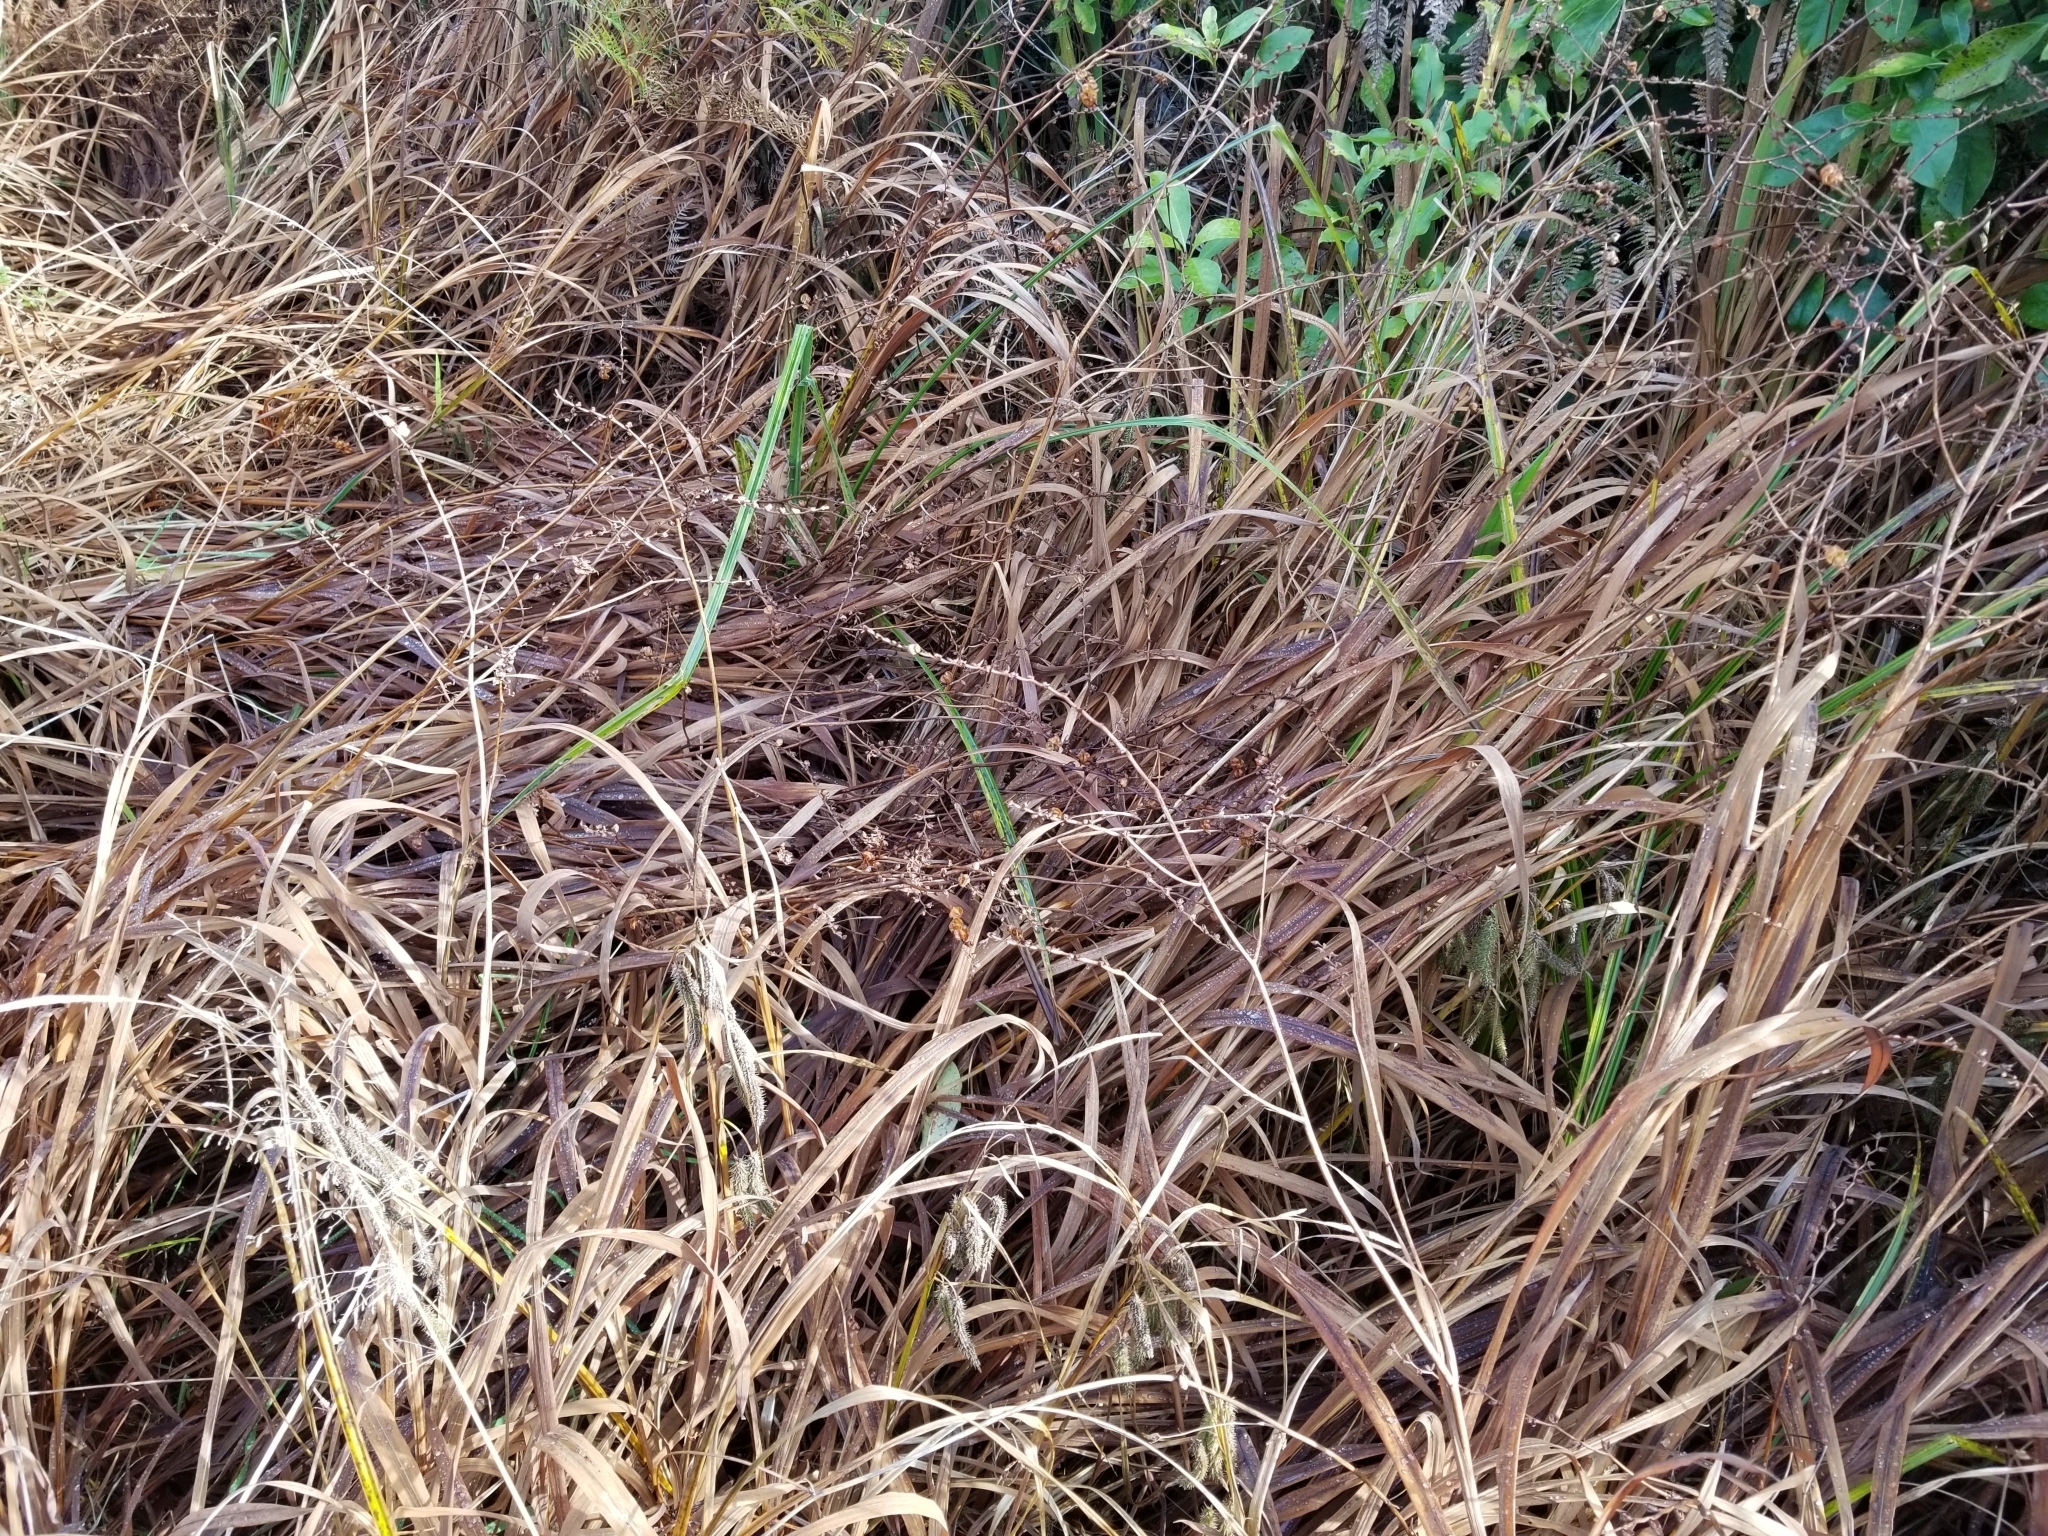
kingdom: Plantae
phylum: Tracheophyta
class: Liliopsida
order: Asparagales
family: Iridaceae
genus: Crocosmia
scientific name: Crocosmia crocosmiiflora
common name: Montbretia
